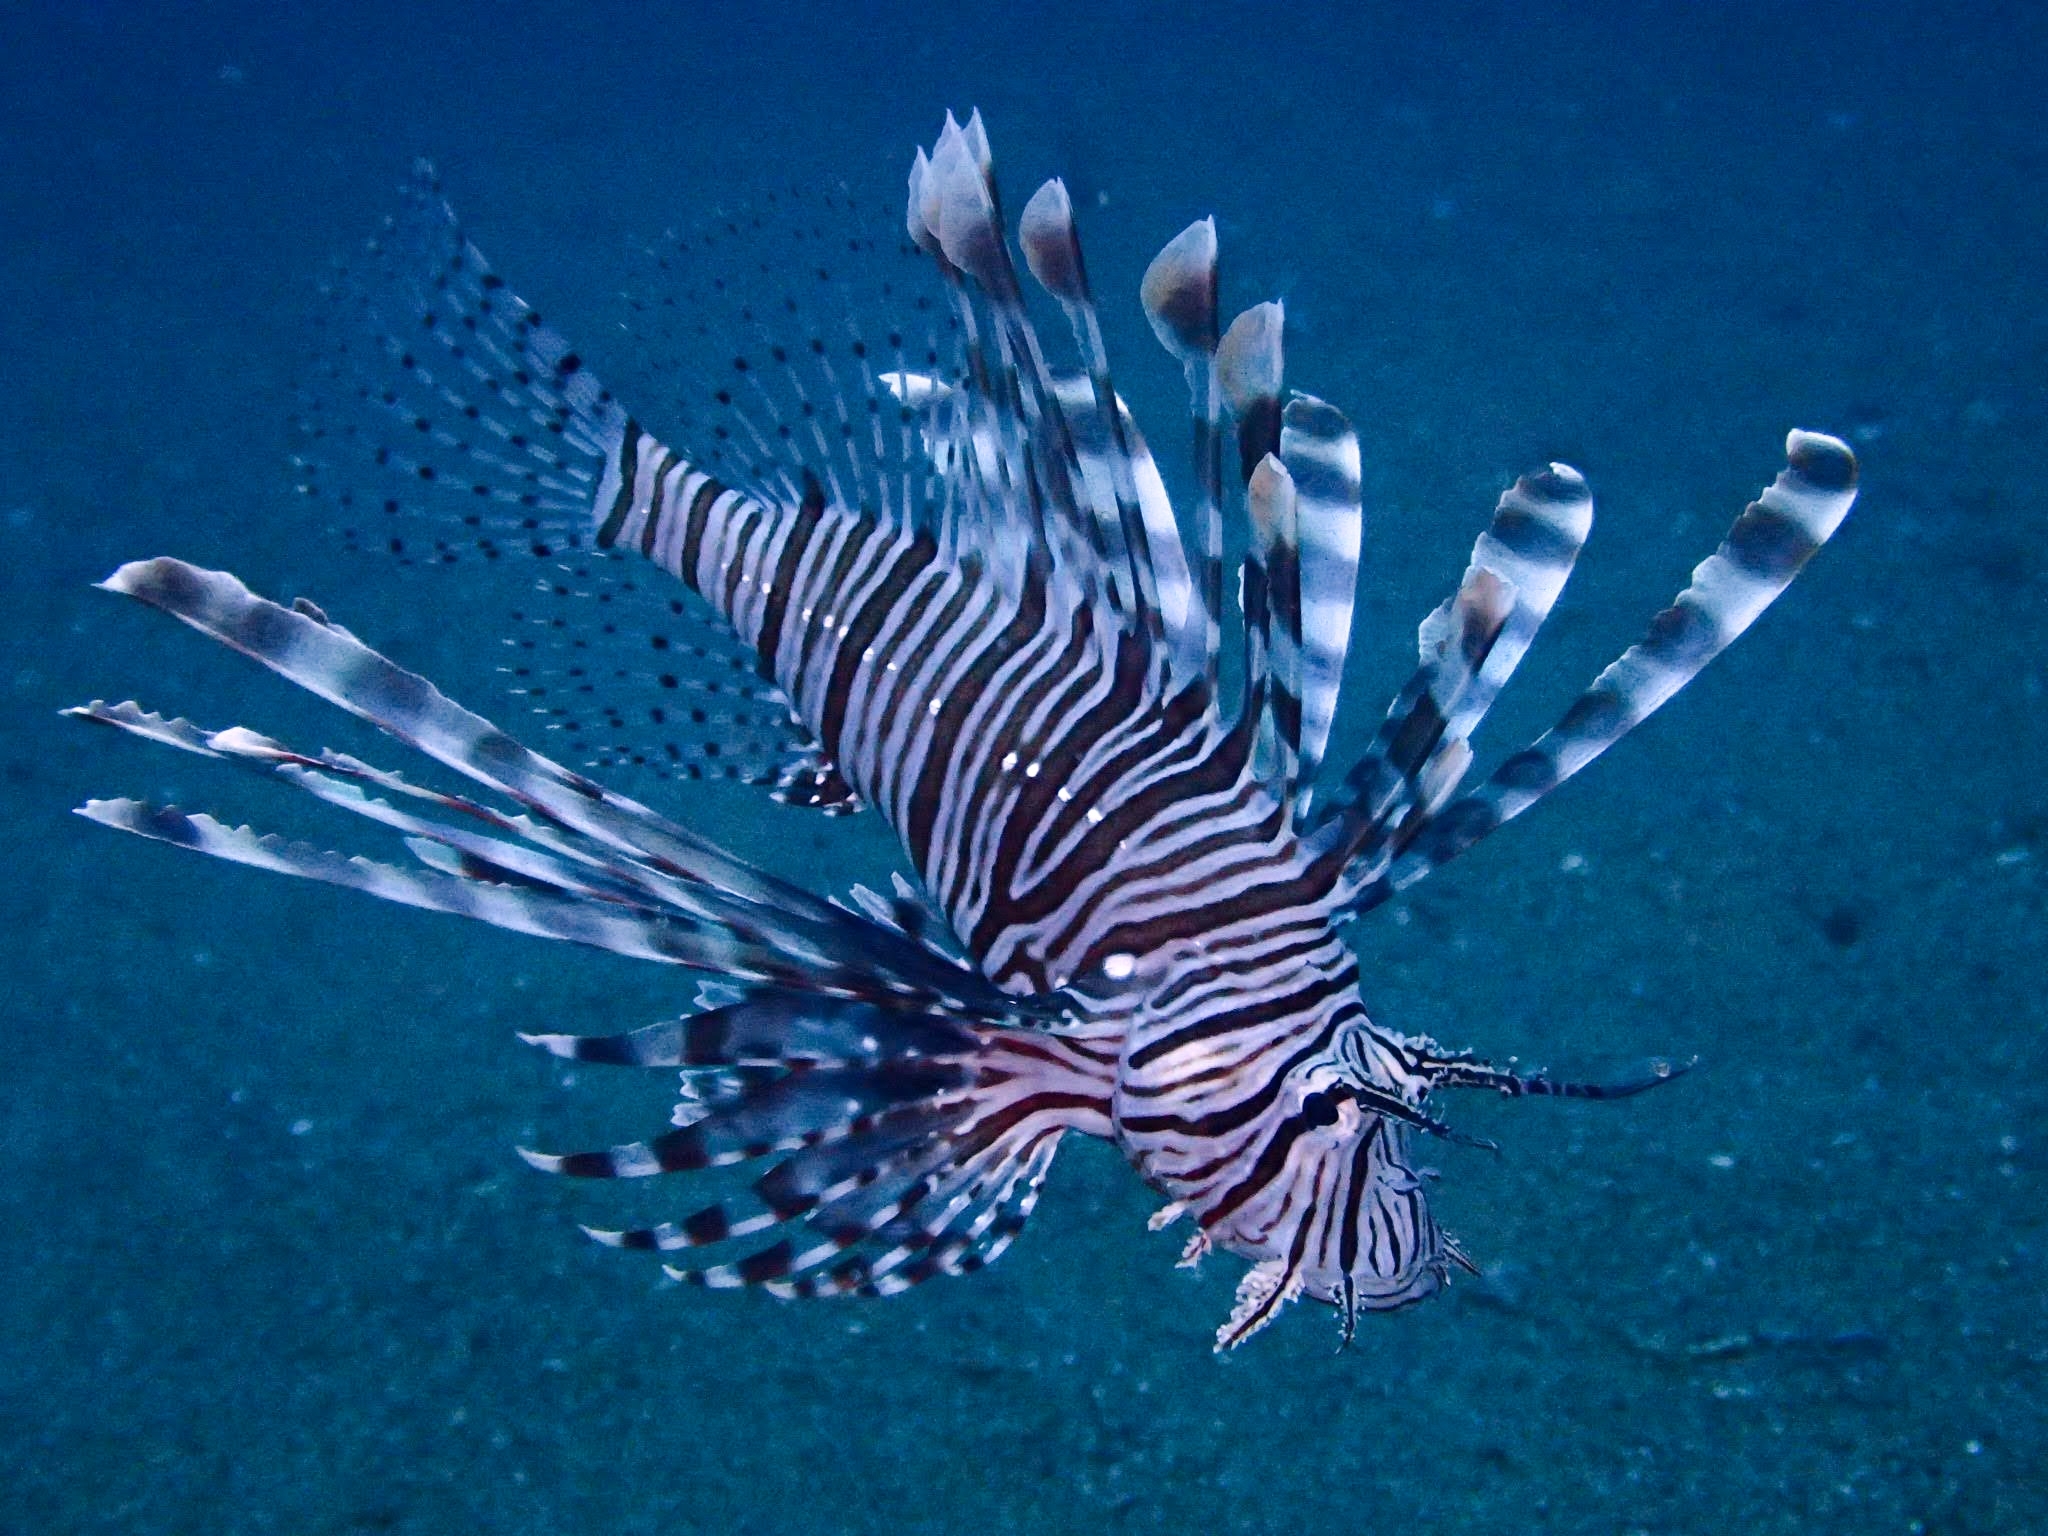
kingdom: Animalia
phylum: Chordata
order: Scorpaeniformes
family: Scorpaenidae
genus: Pterois
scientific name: Pterois volitans
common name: Lionfish
